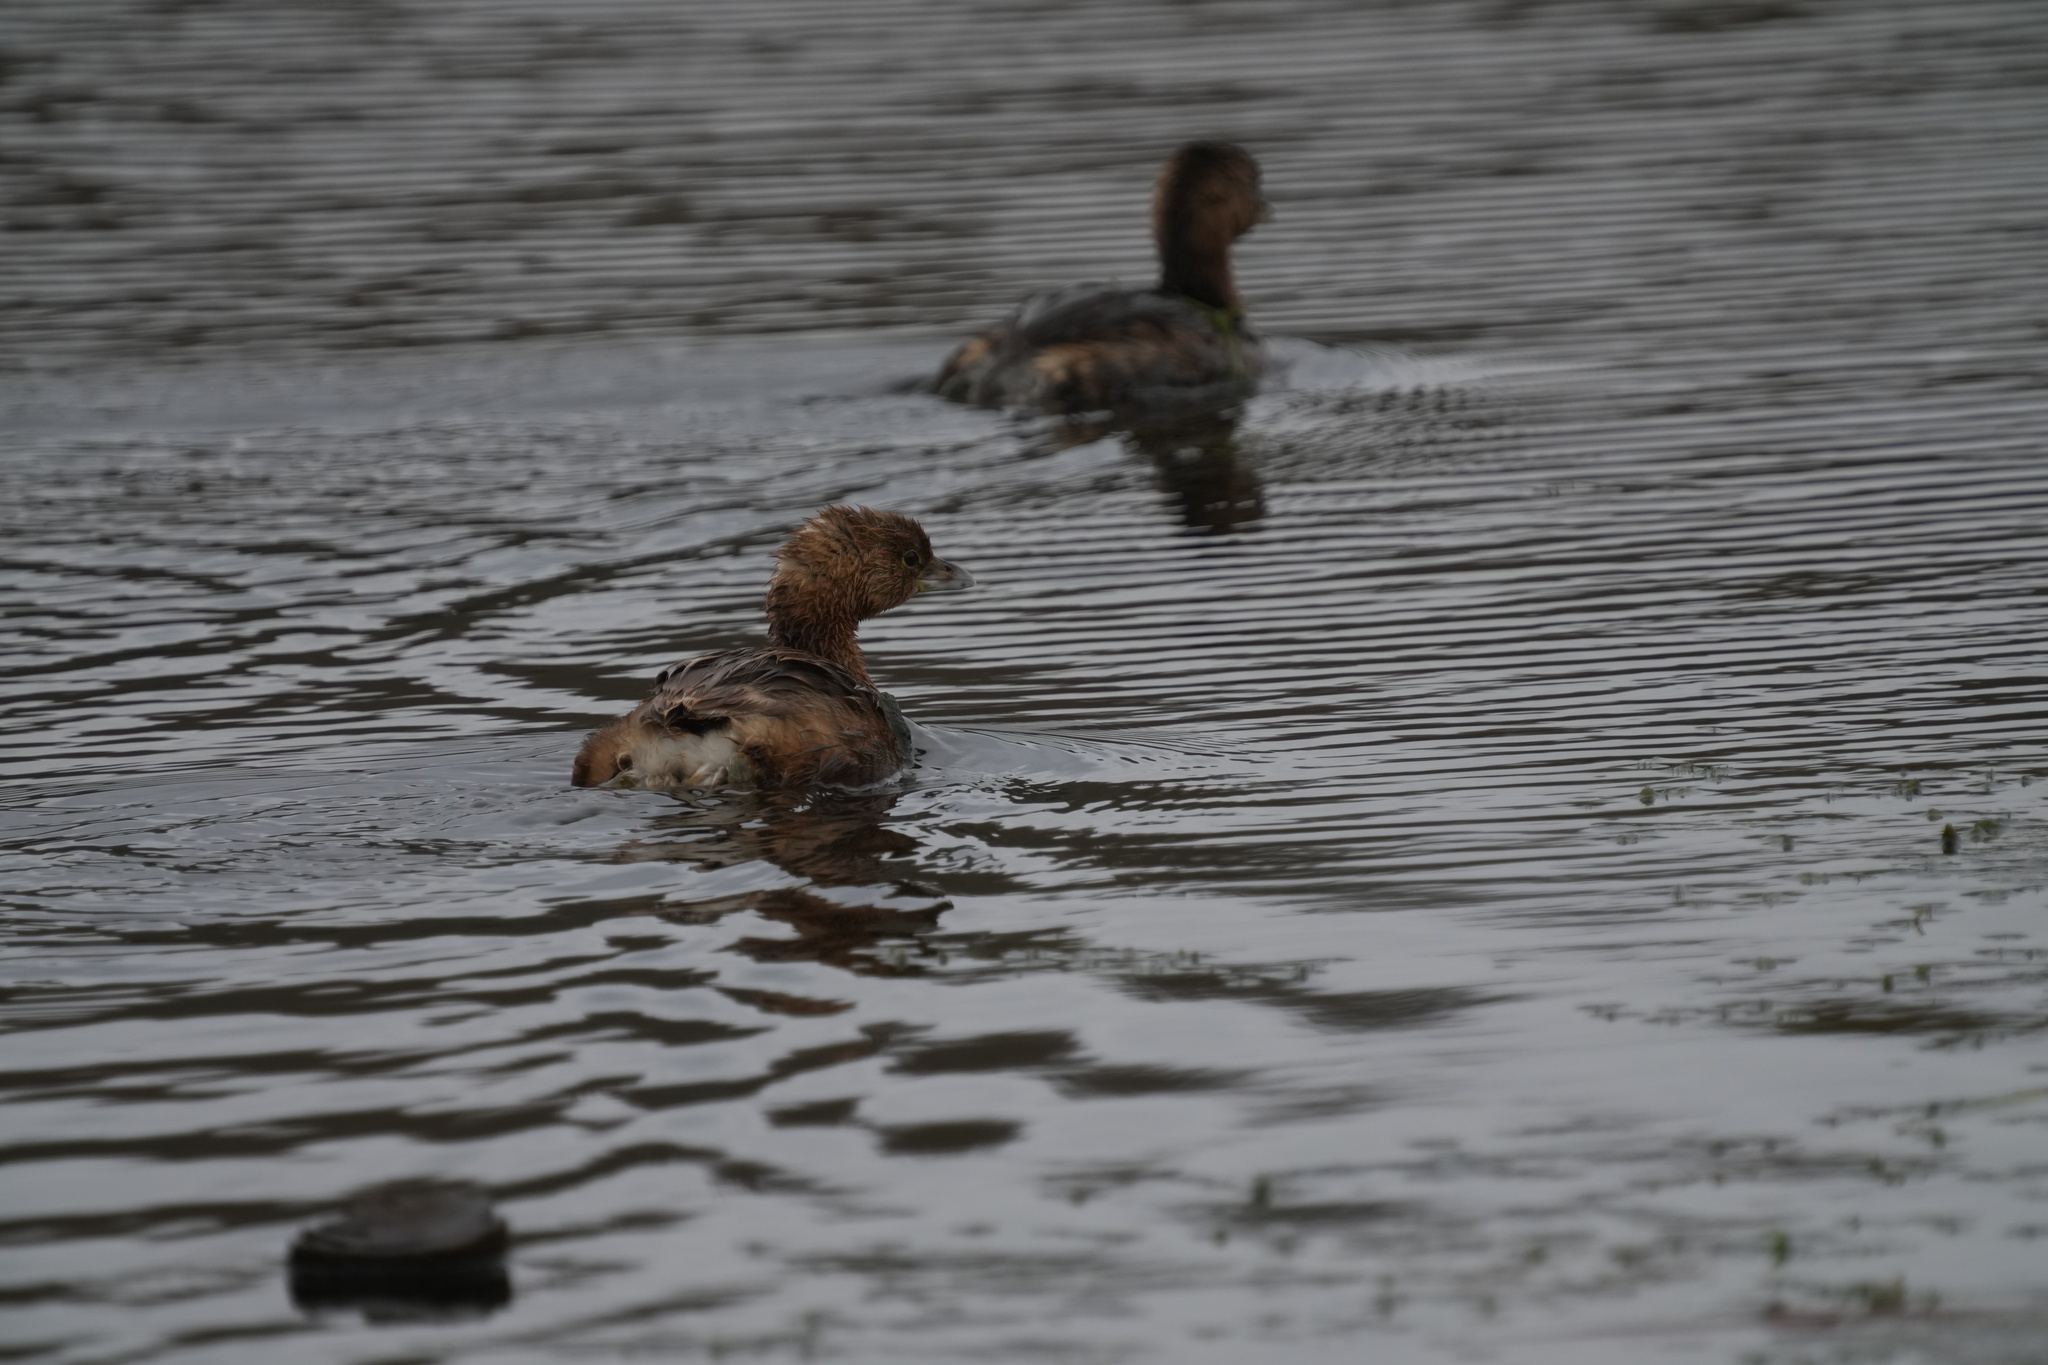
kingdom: Animalia
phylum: Chordata
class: Aves
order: Podicipediformes
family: Podicipedidae
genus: Podilymbus
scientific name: Podilymbus podiceps
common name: Pied-billed grebe
